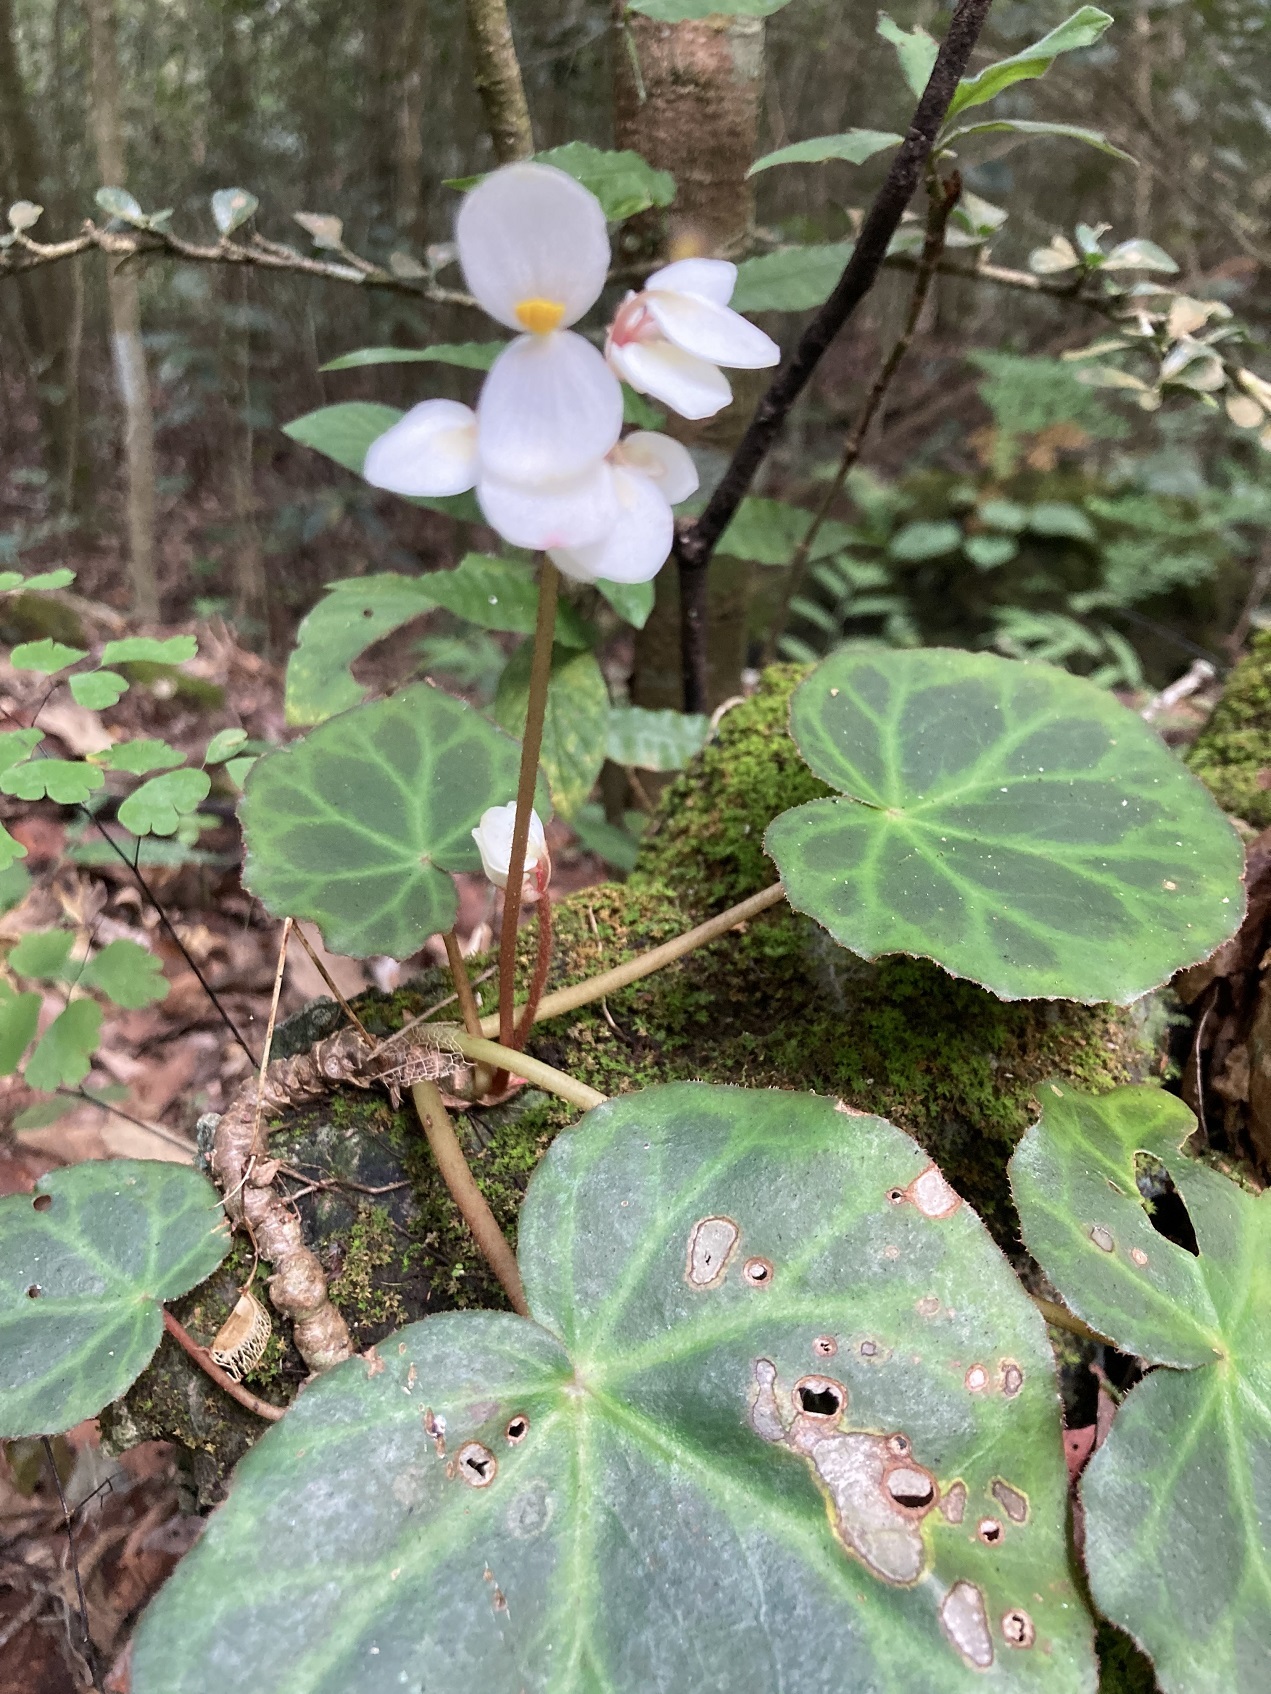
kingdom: Plantae
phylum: Tracheophyta
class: Magnoliopsida
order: Cucurbitales
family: Begoniaceae
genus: Begonia
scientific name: Begonia plebeja
